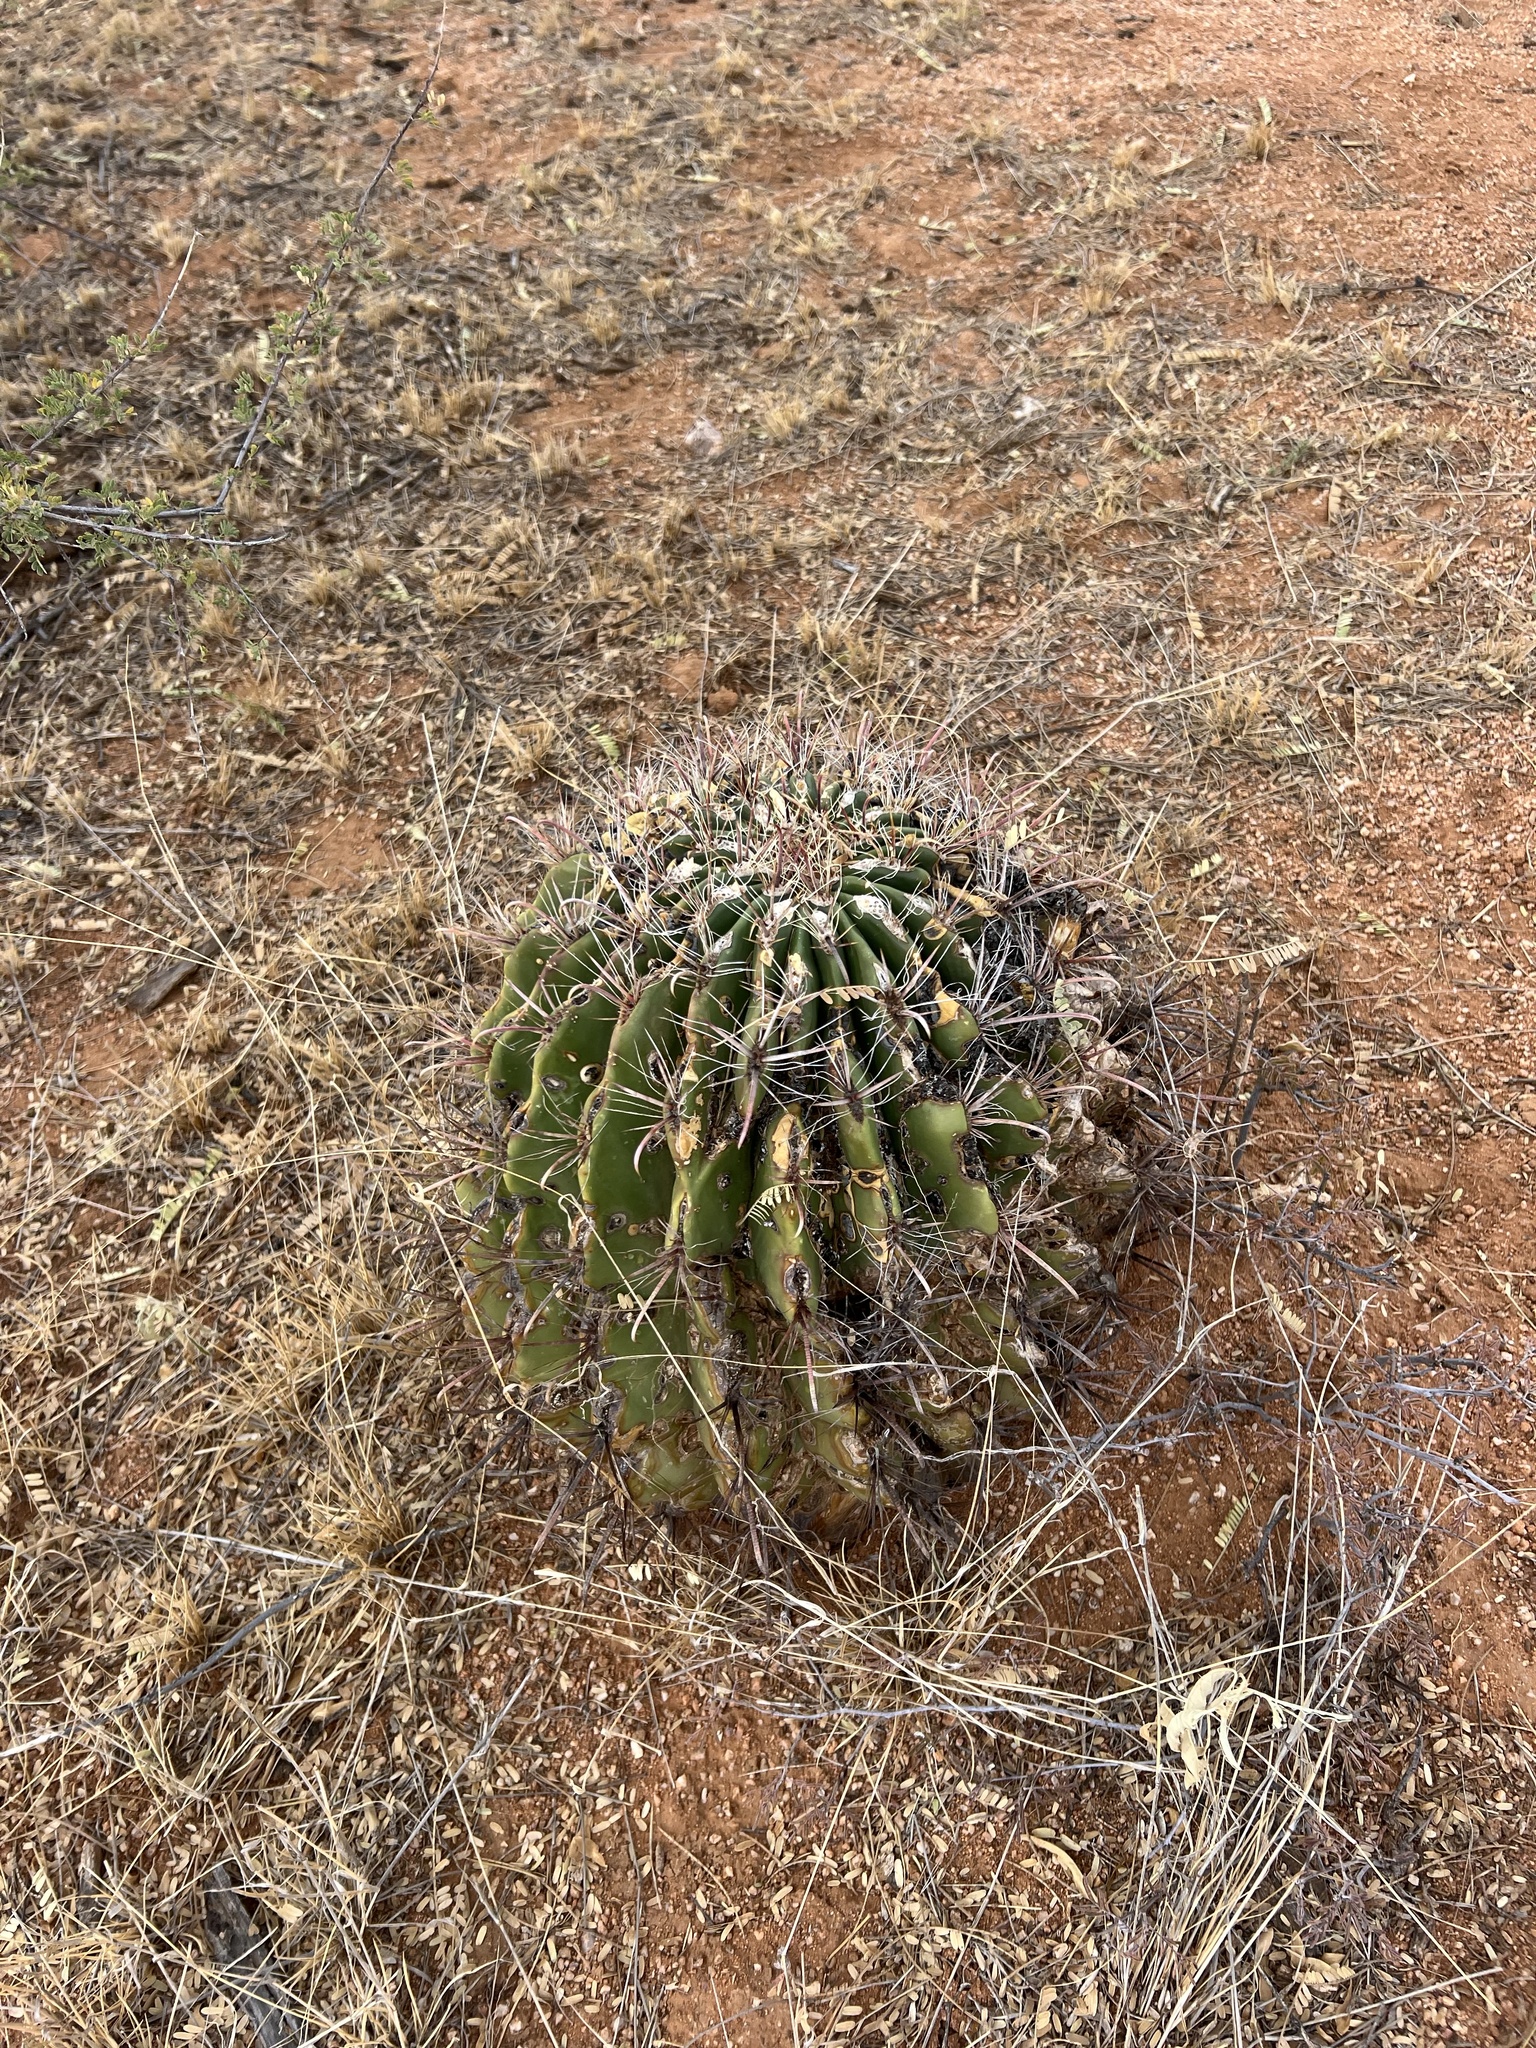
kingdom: Plantae
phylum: Tracheophyta
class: Magnoliopsida
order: Caryophyllales
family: Cactaceae
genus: Ferocactus
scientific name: Ferocactus wislizeni
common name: Candy barrel cactus
